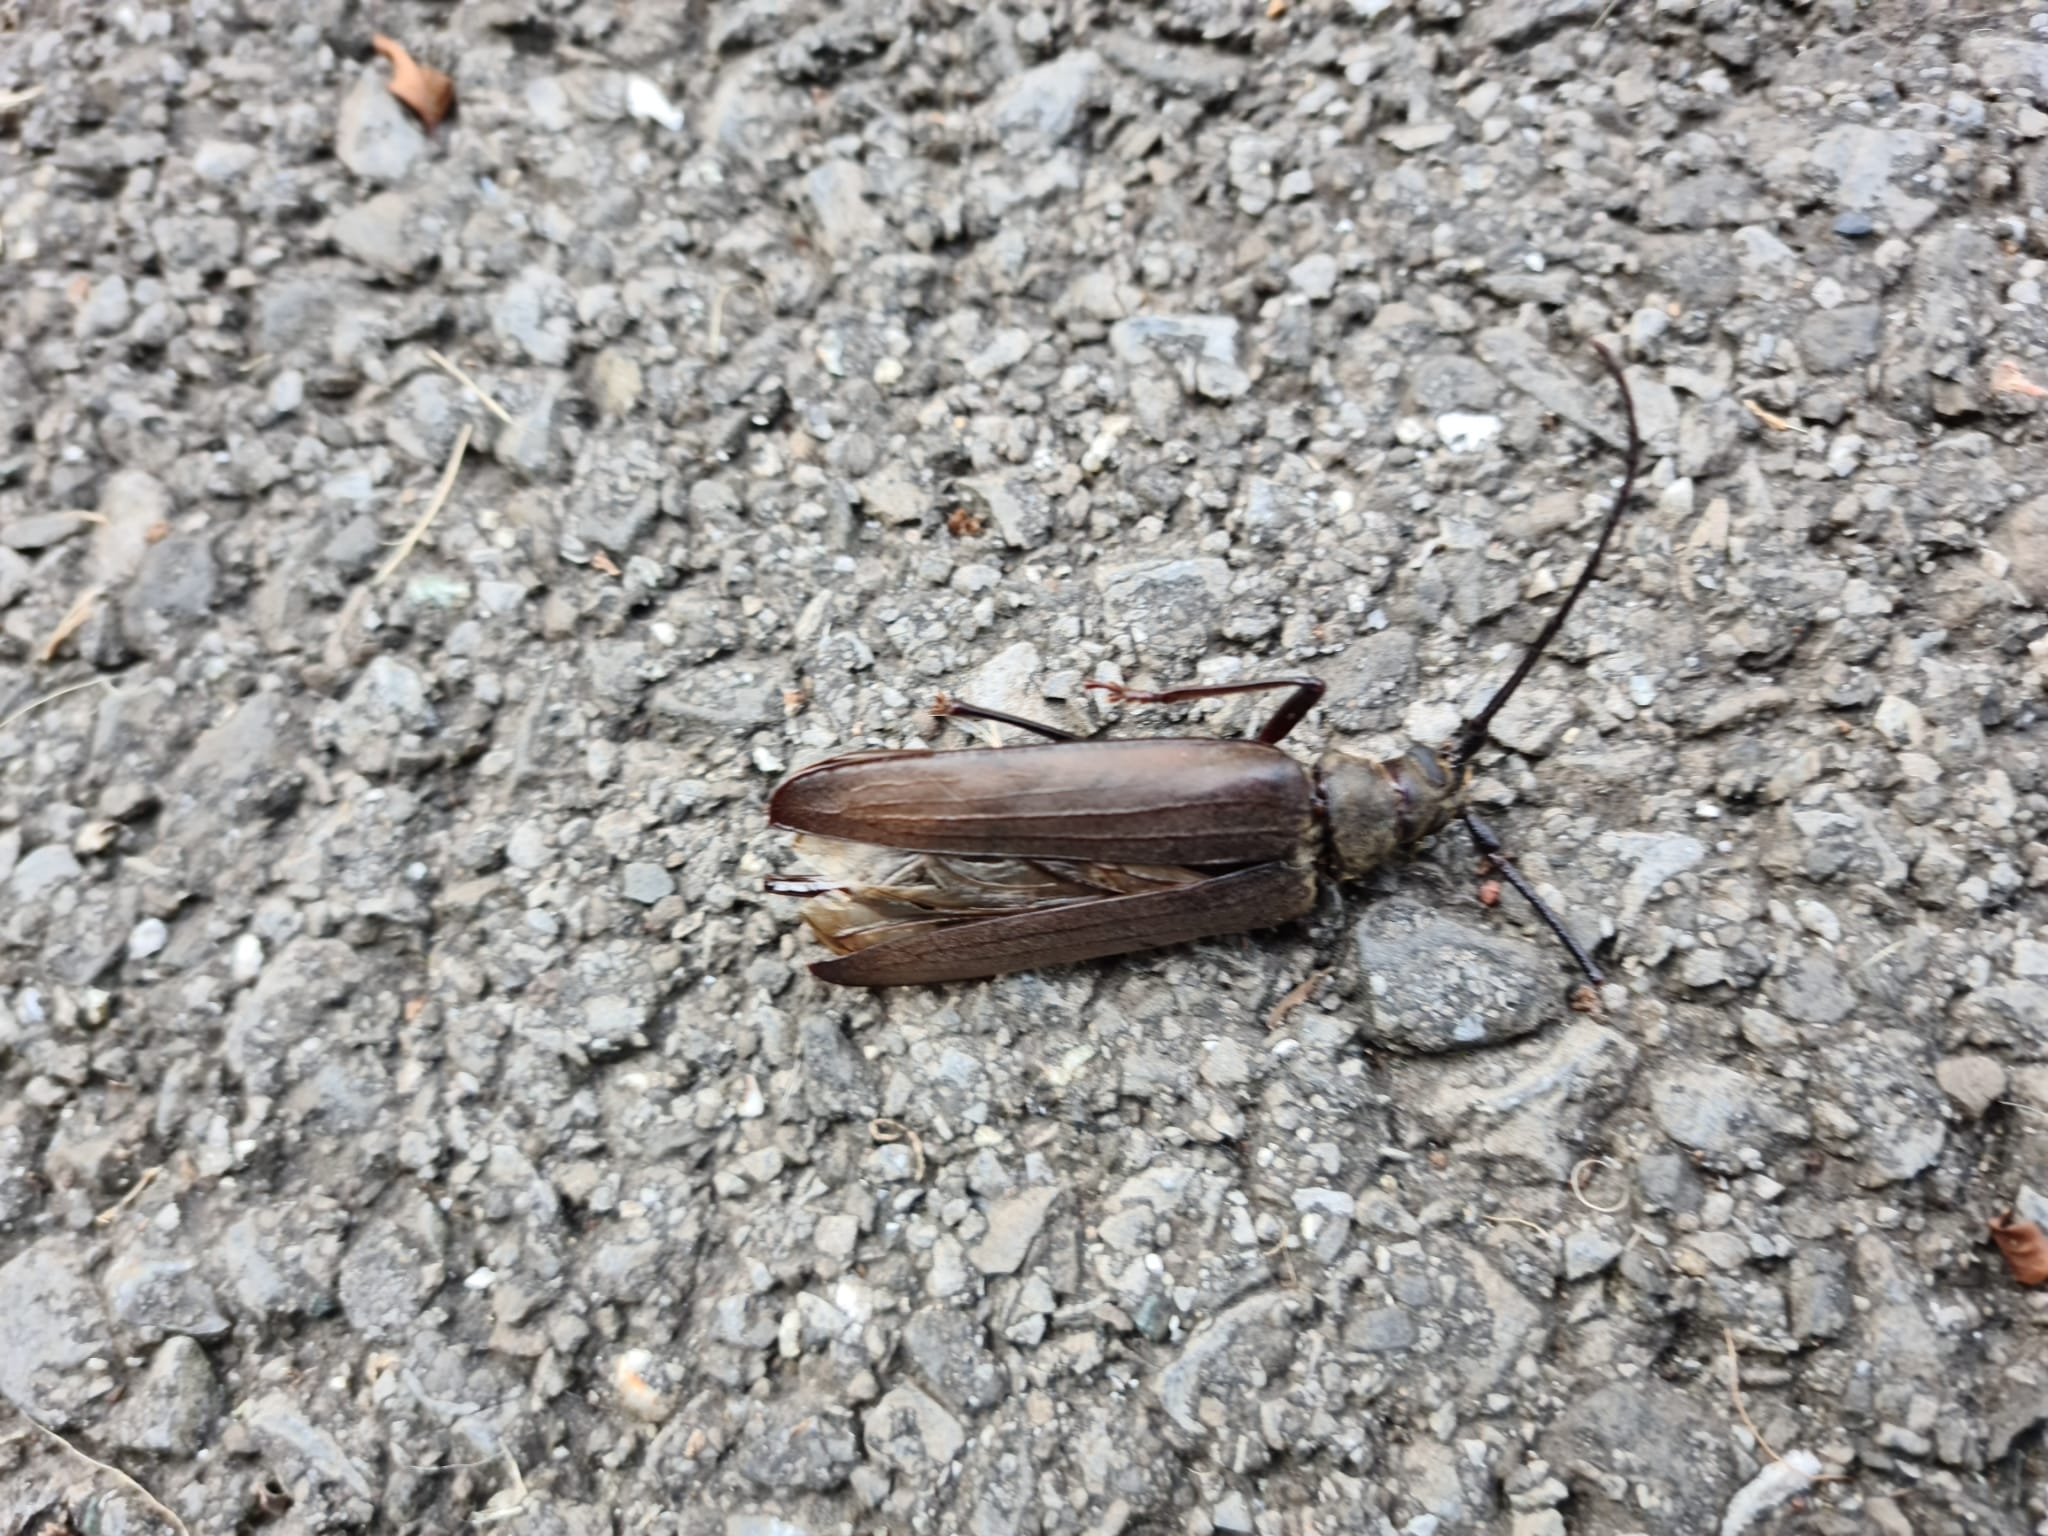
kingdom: Animalia
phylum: Arthropoda
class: Insecta
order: Coleoptera
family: Cerambycidae
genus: Aegosoma
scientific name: Aegosoma scabricorne
